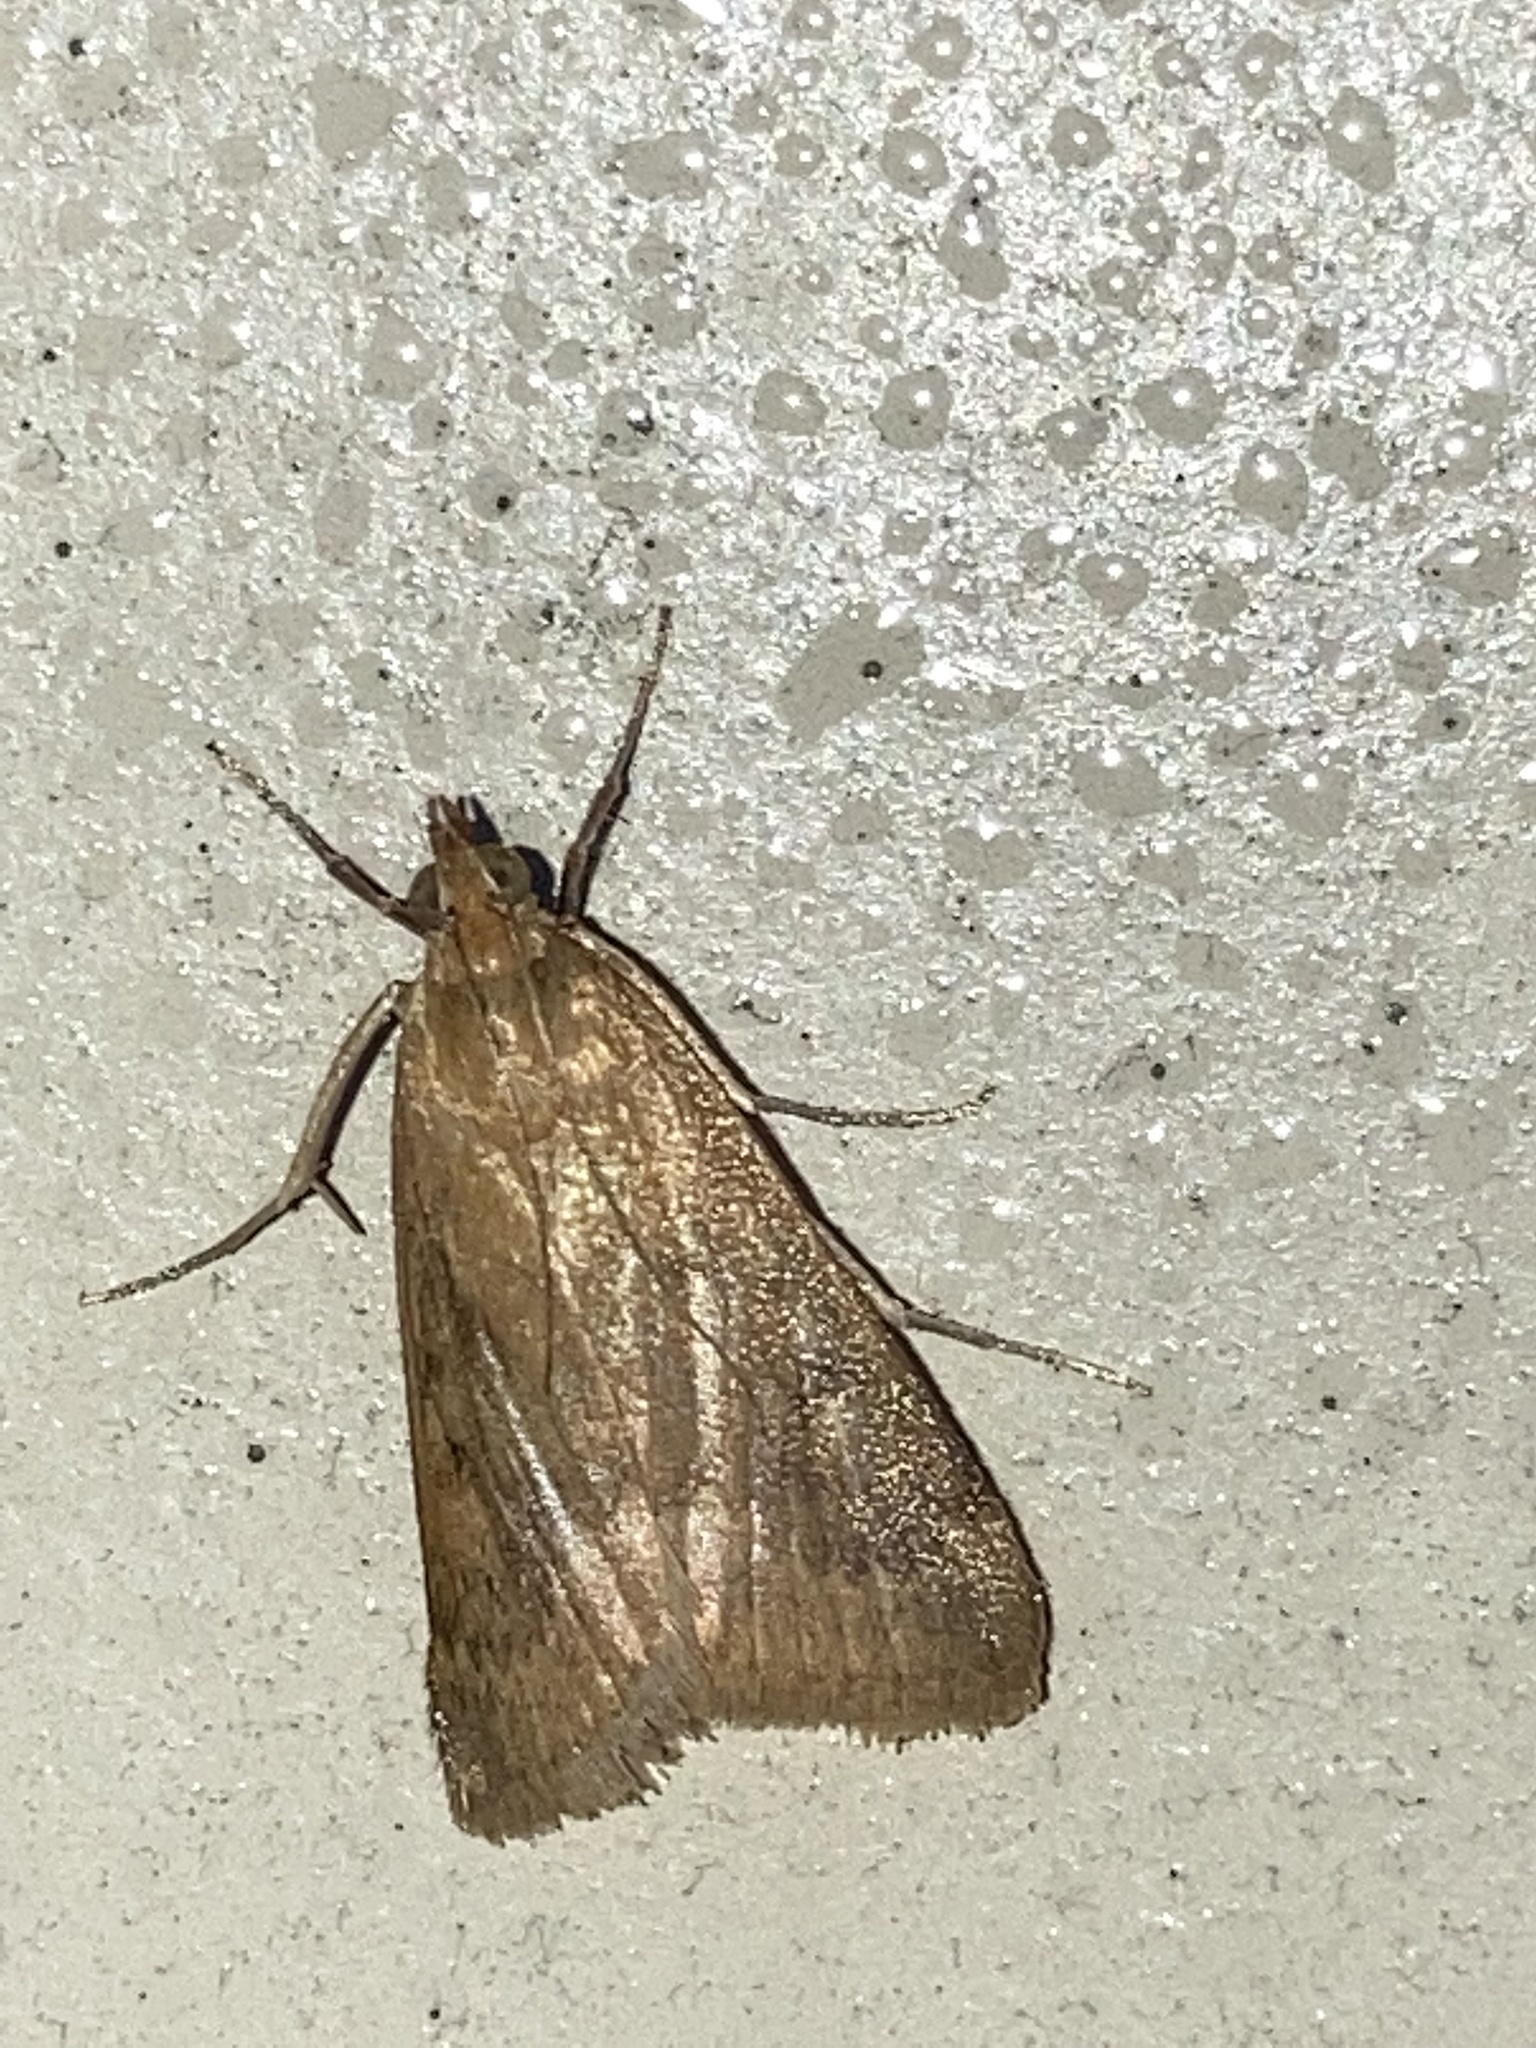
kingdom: Animalia
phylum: Arthropoda
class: Insecta
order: Lepidoptera
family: Crambidae
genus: Achyra
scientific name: Achyra rantalis
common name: Garden webworm
